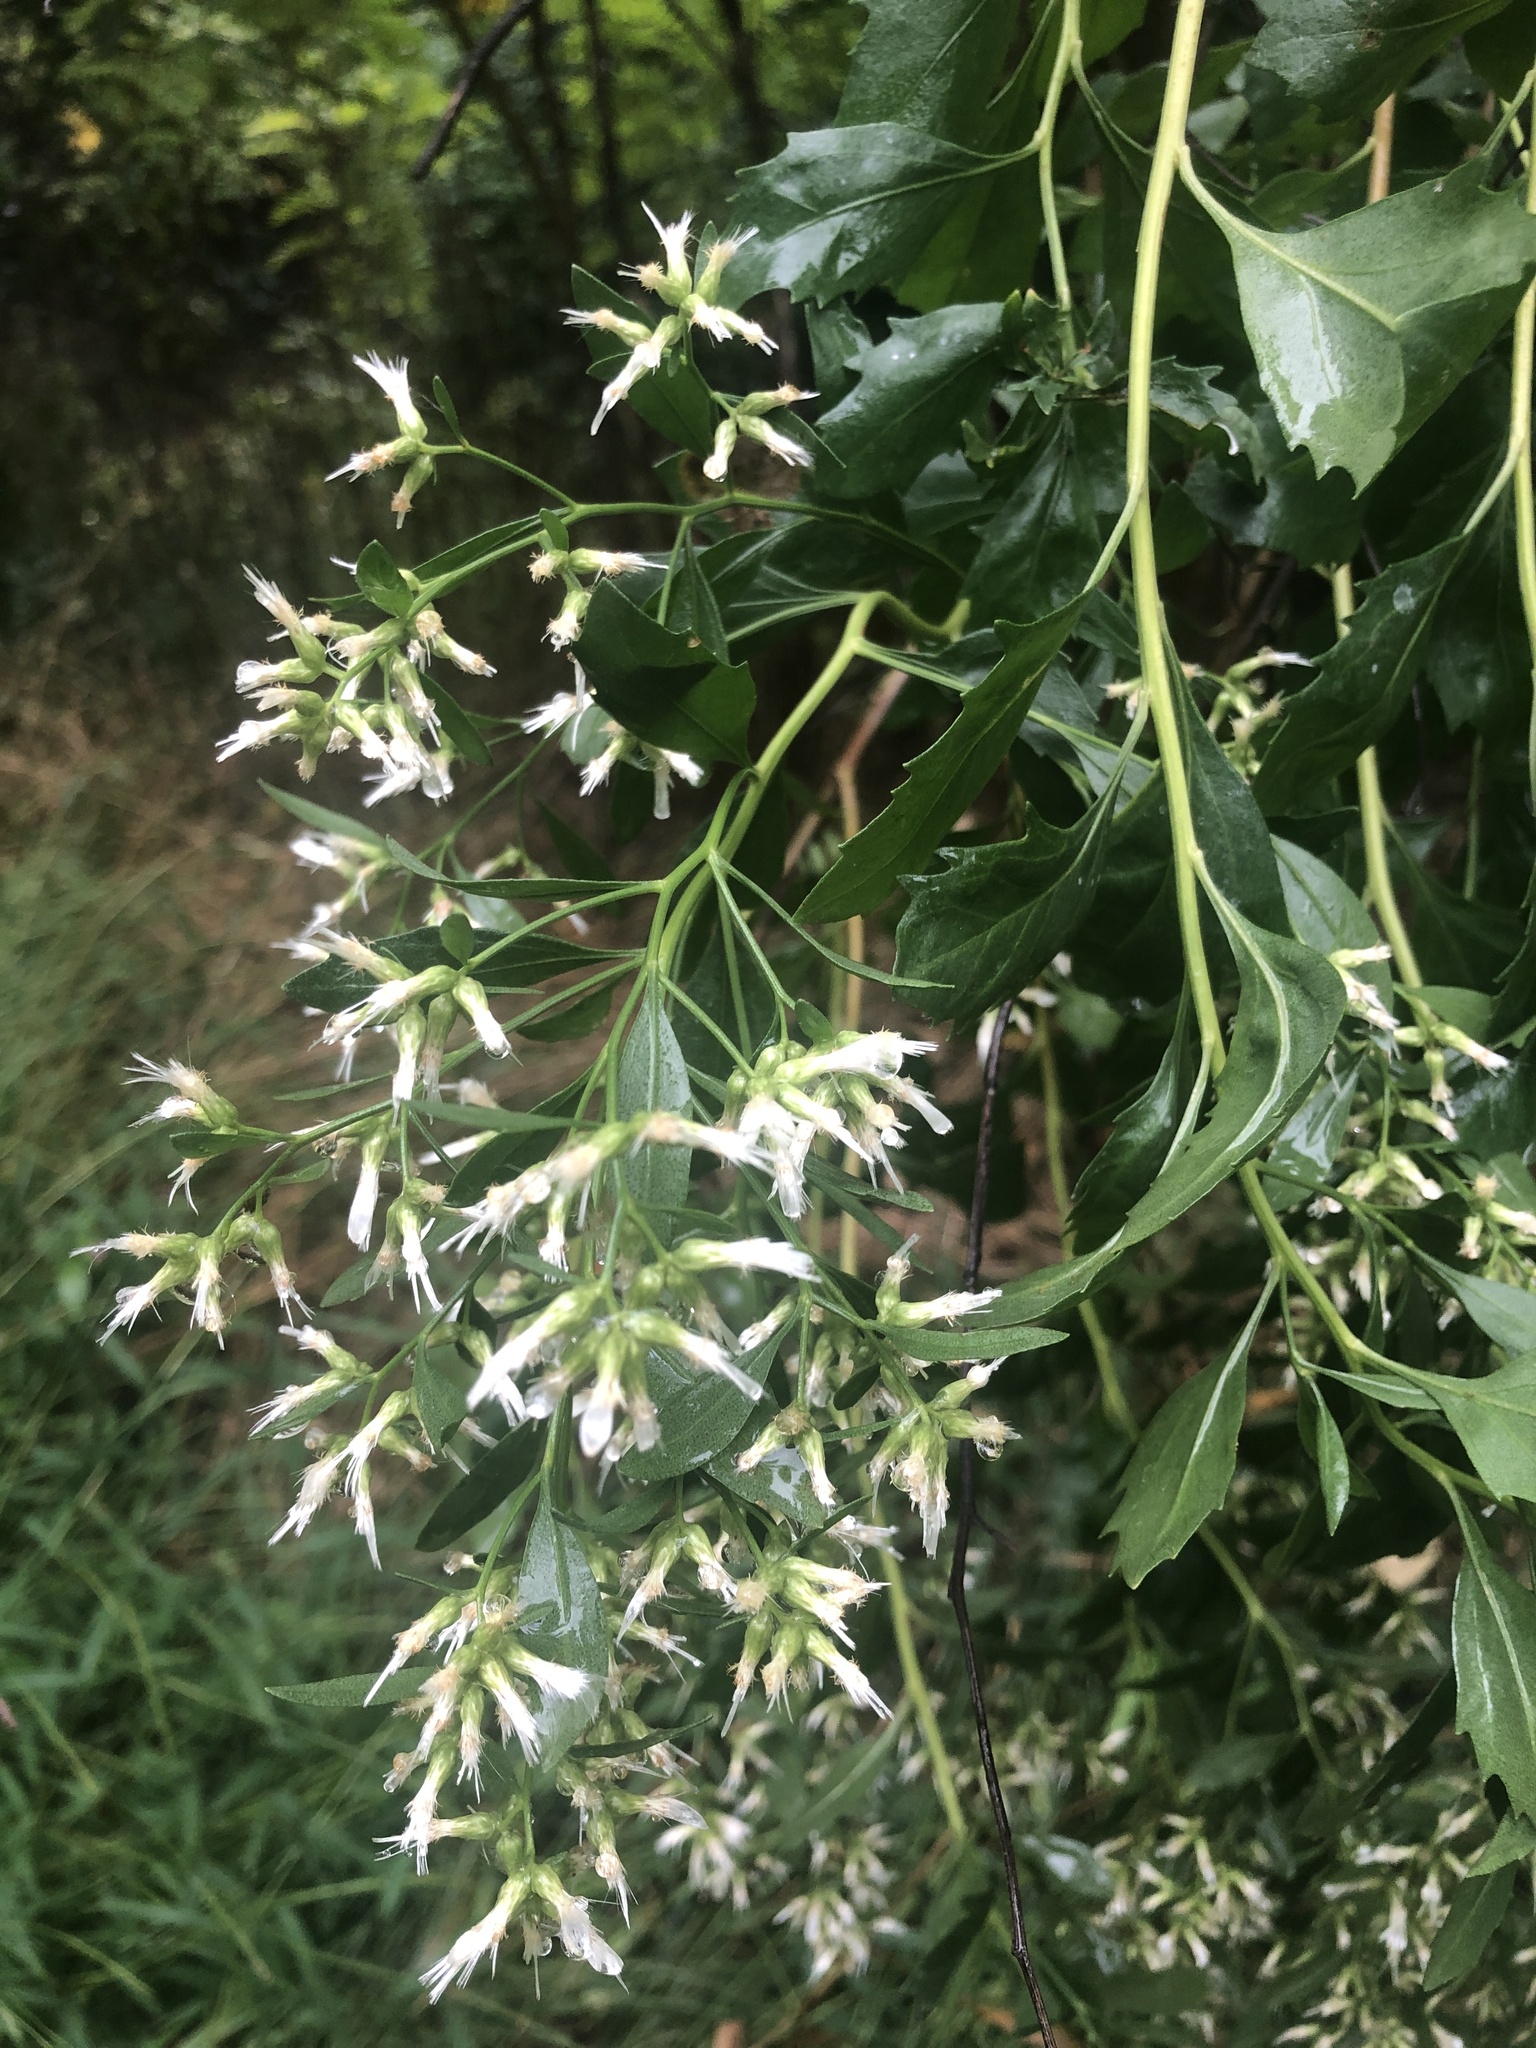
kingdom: Plantae
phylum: Tracheophyta
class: Magnoliopsida
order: Asterales
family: Asteraceae
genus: Baccharis
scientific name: Baccharis halimifolia
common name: Eastern baccharis
